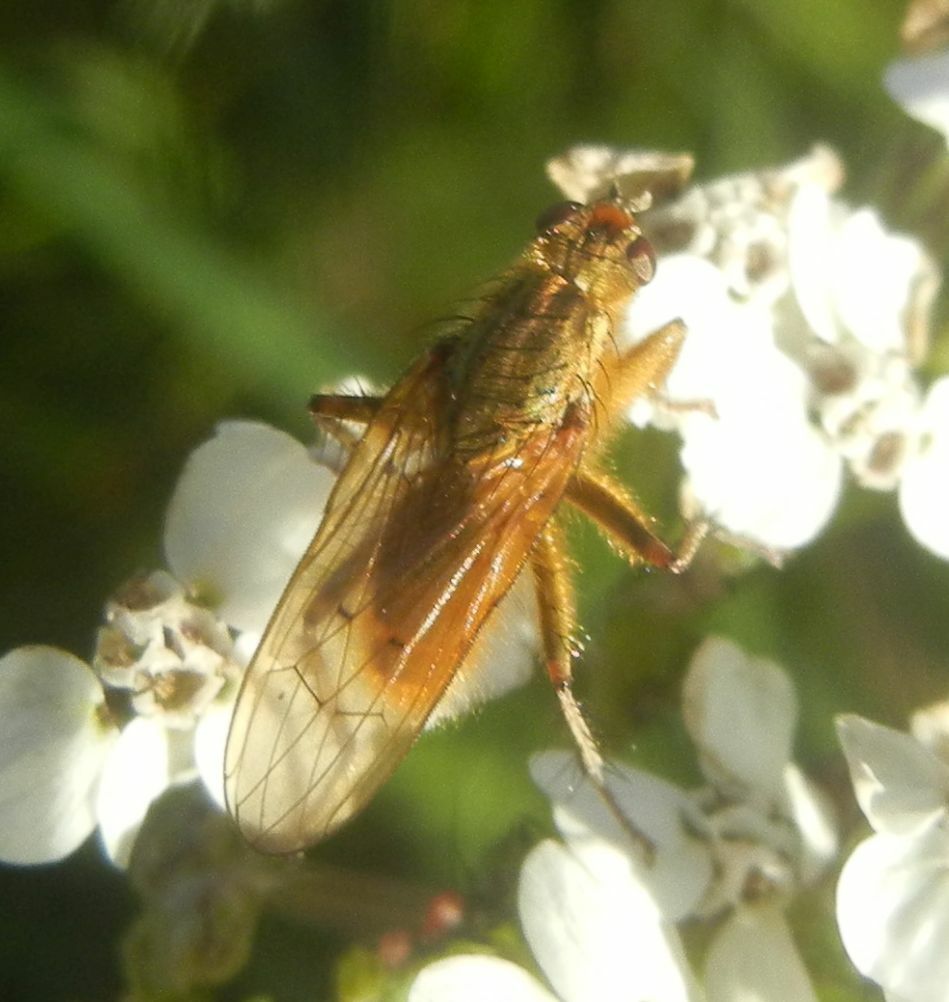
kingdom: Animalia
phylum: Arthropoda
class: Insecta
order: Diptera
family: Scathophagidae
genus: Scathophaga
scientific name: Scathophaga stercoraria
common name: Yellow dung fly
